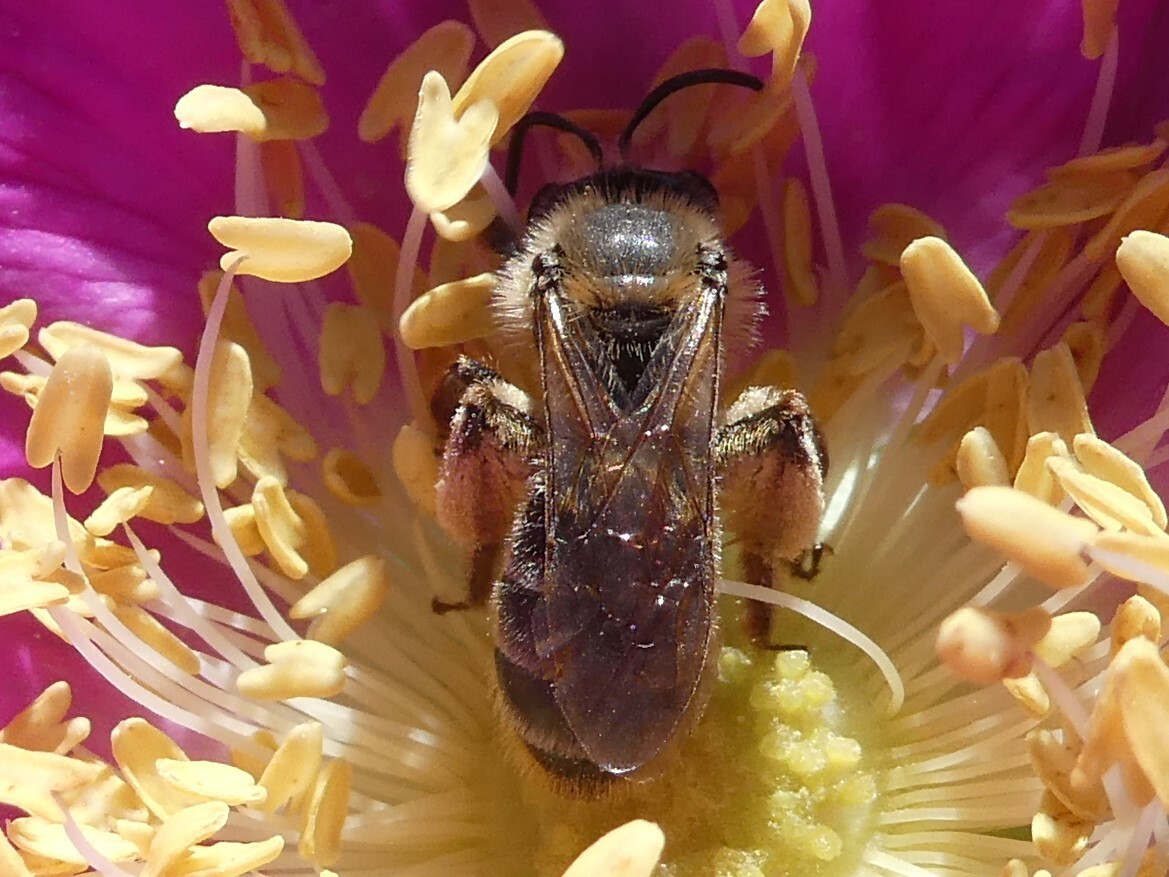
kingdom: Animalia
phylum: Arthropoda
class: Insecta
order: Hymenoptera
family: Andrenidae
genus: Andrena
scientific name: Andrena thaspii
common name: Parsnip miner bee
